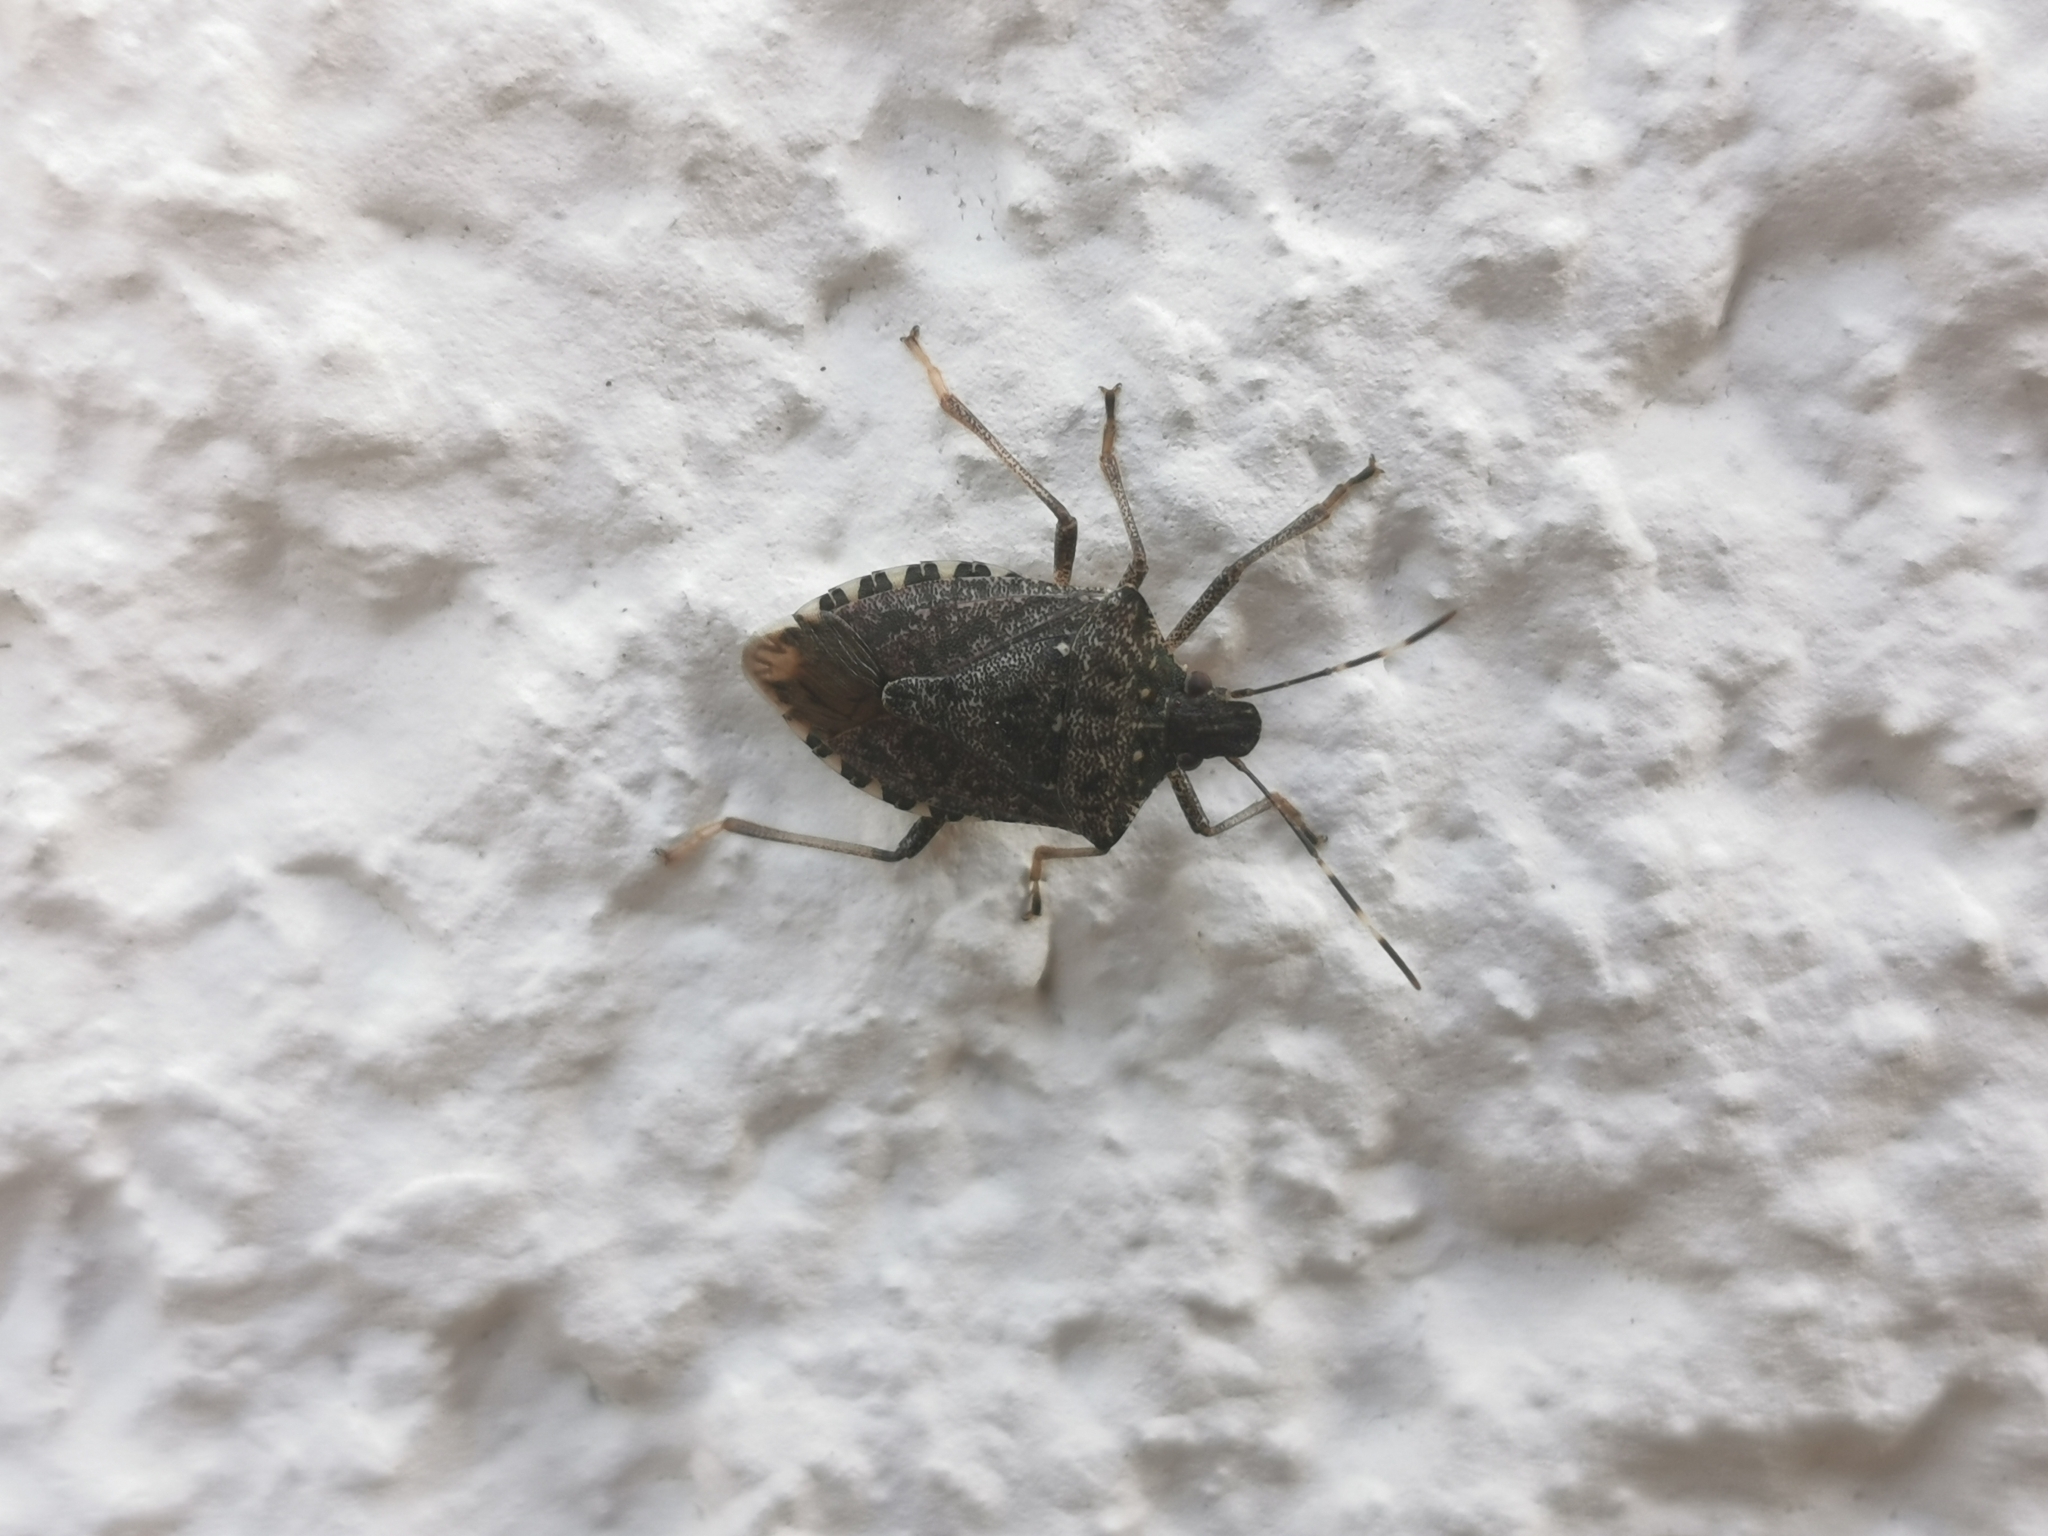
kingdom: Animalia
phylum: Arthropoda
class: Insecta
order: Hemiptera
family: Pentatomidae
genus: Halyomorpha
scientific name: Halyomorpha halys
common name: Brown marmorated stink bug
